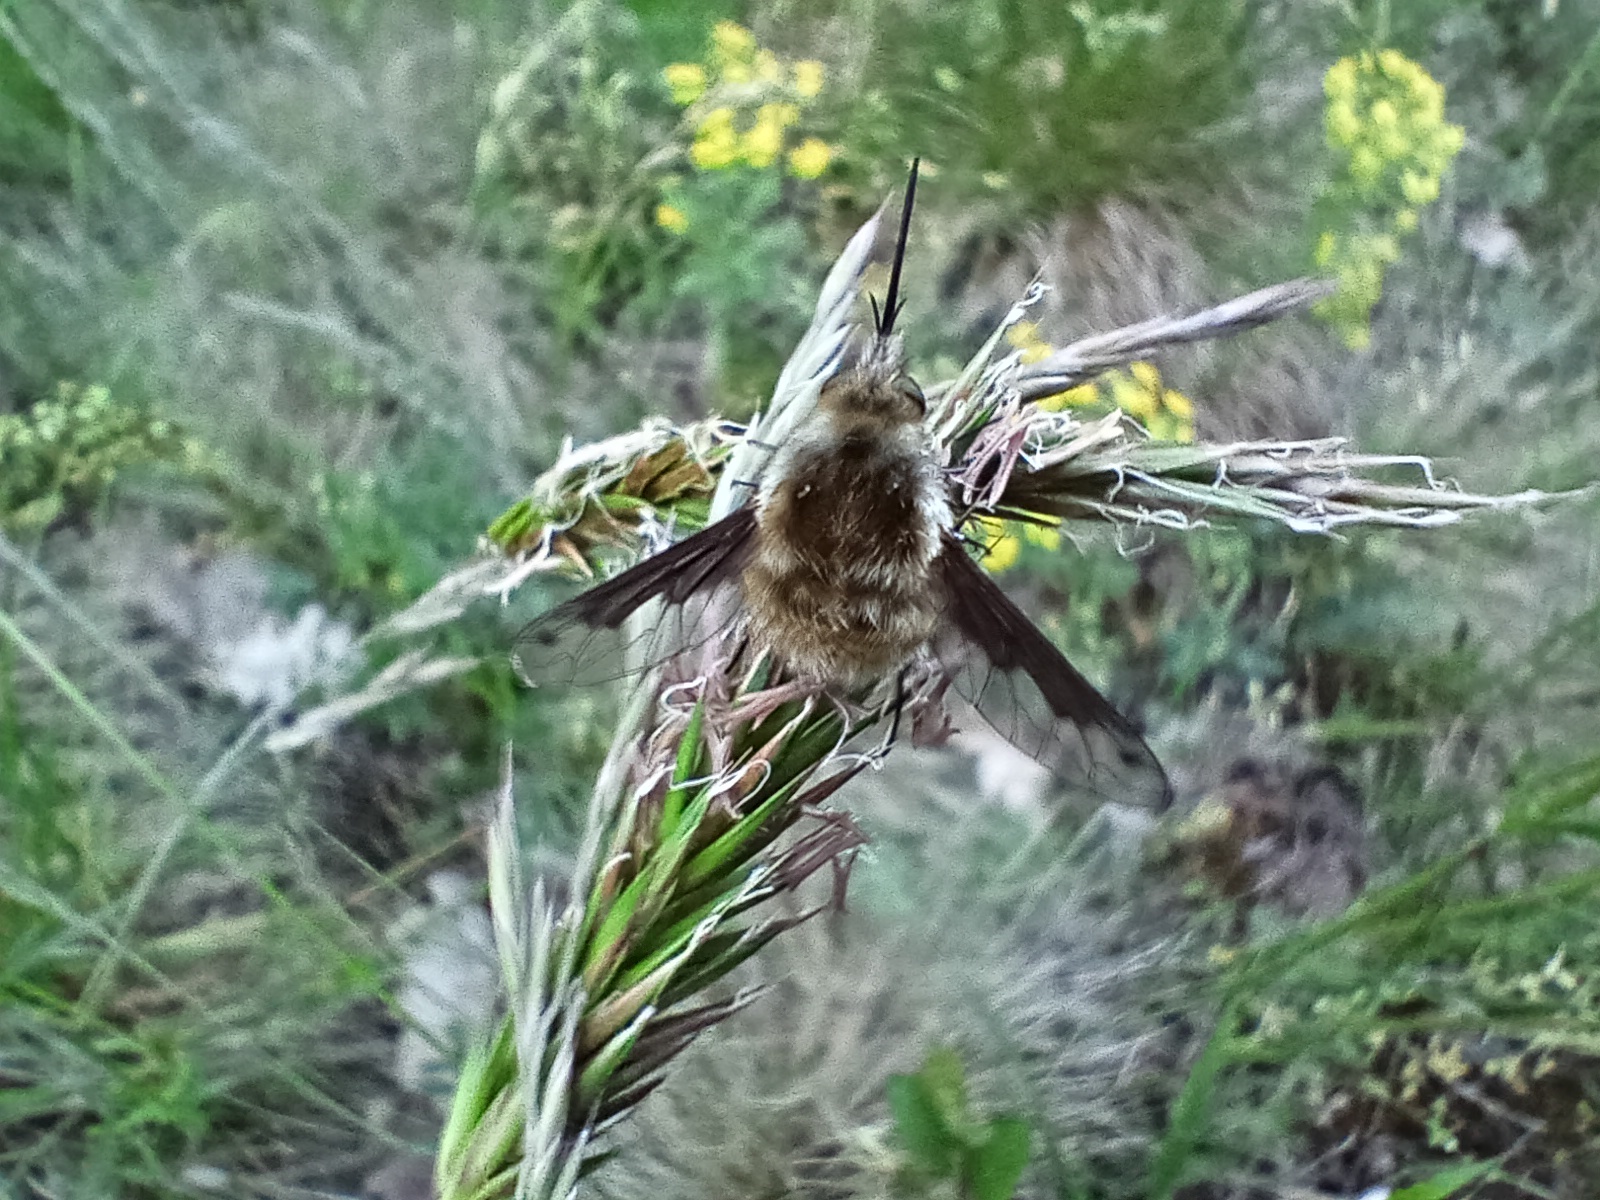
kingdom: Animalia
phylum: Arthropoda
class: Insecta
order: Diptera
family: Bombyliidae
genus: Bombylius
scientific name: Bombylius fimbriatus
